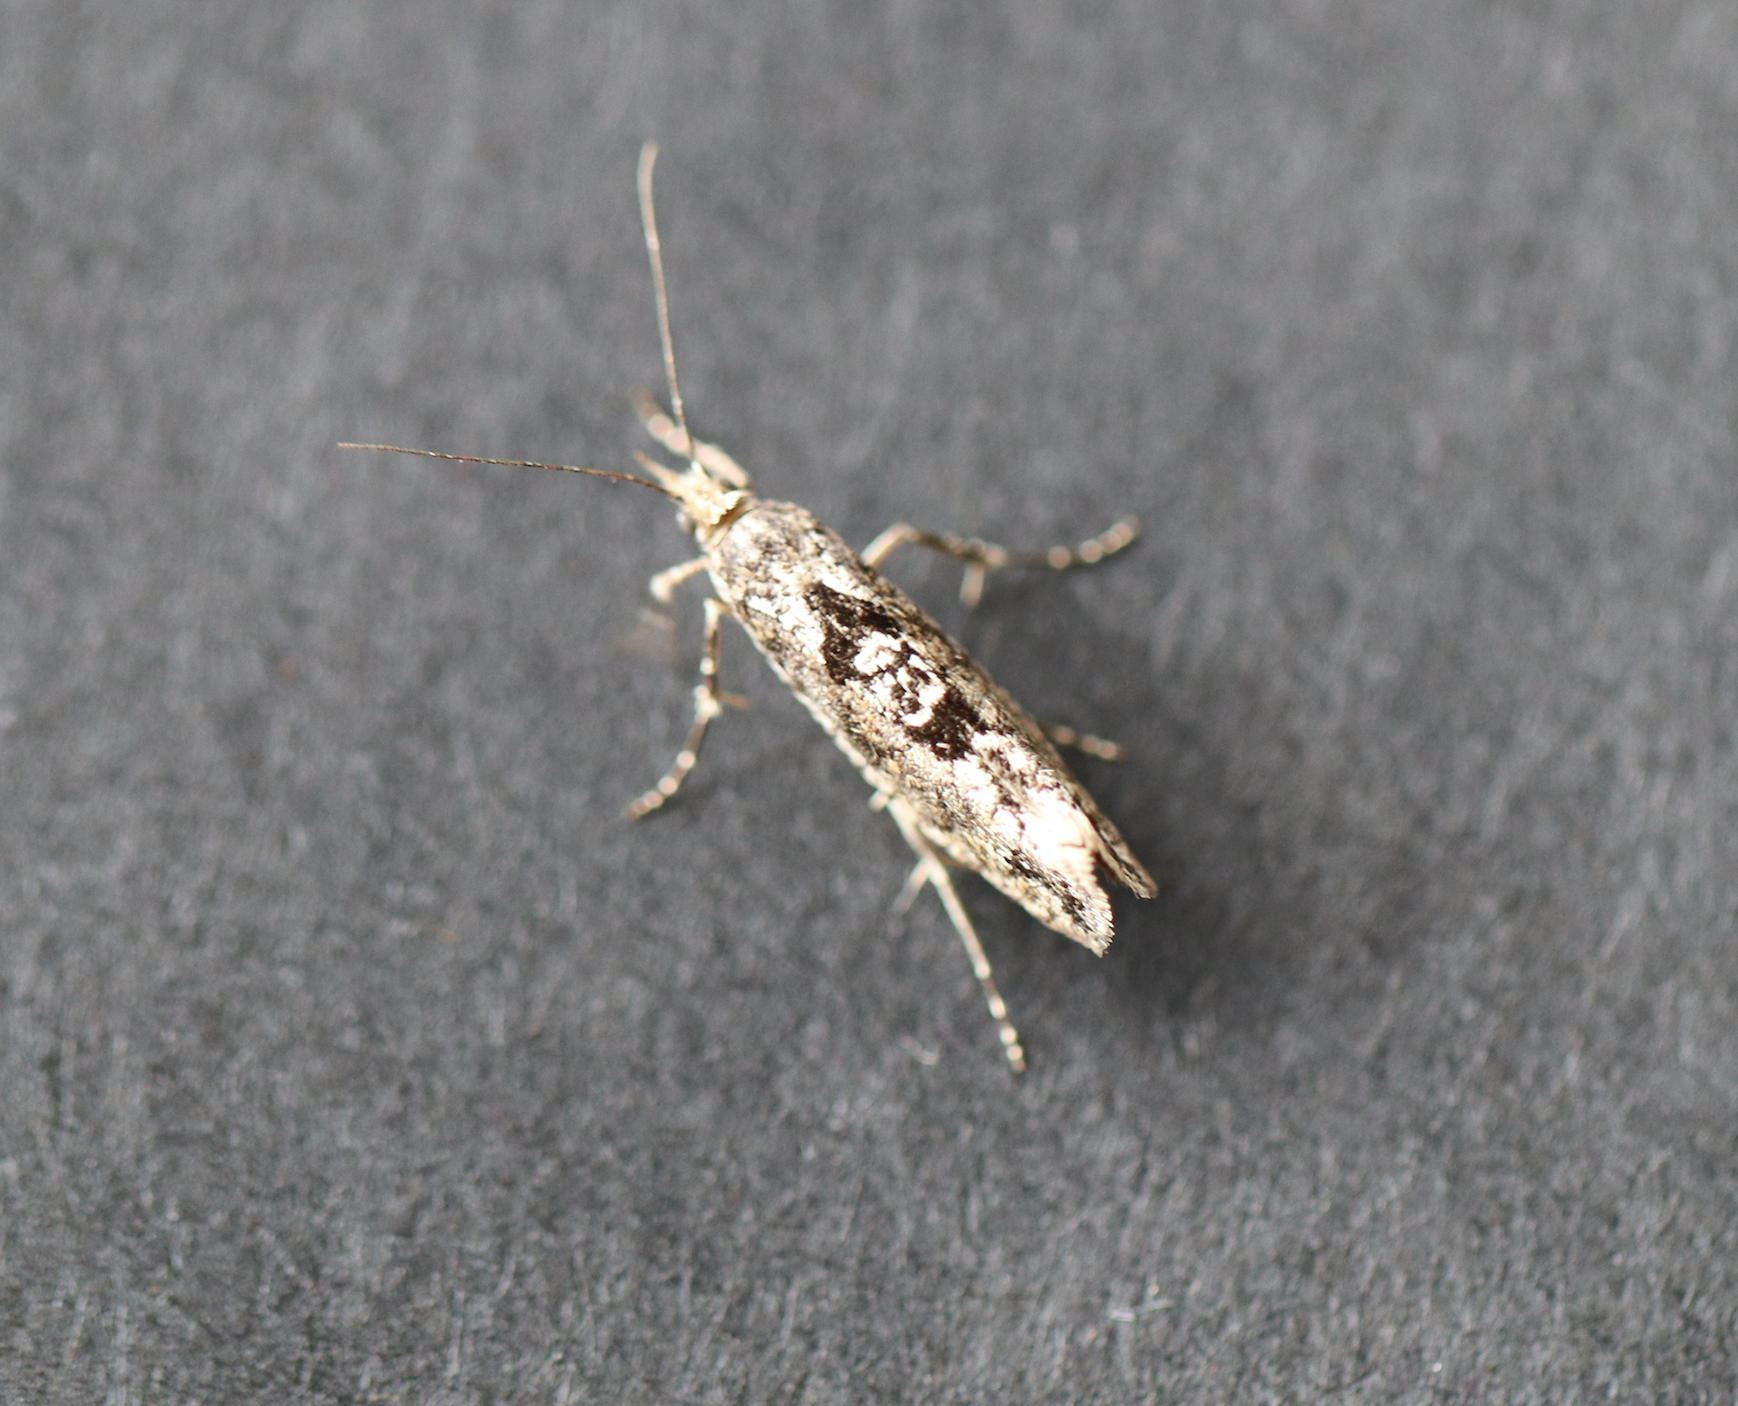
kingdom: Animalia
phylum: Arthropoda
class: Insecta
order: Lepidoptera
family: Ypsolophidae
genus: Ypsolopha
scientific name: Ypsolopha vittella
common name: Elm smudge
